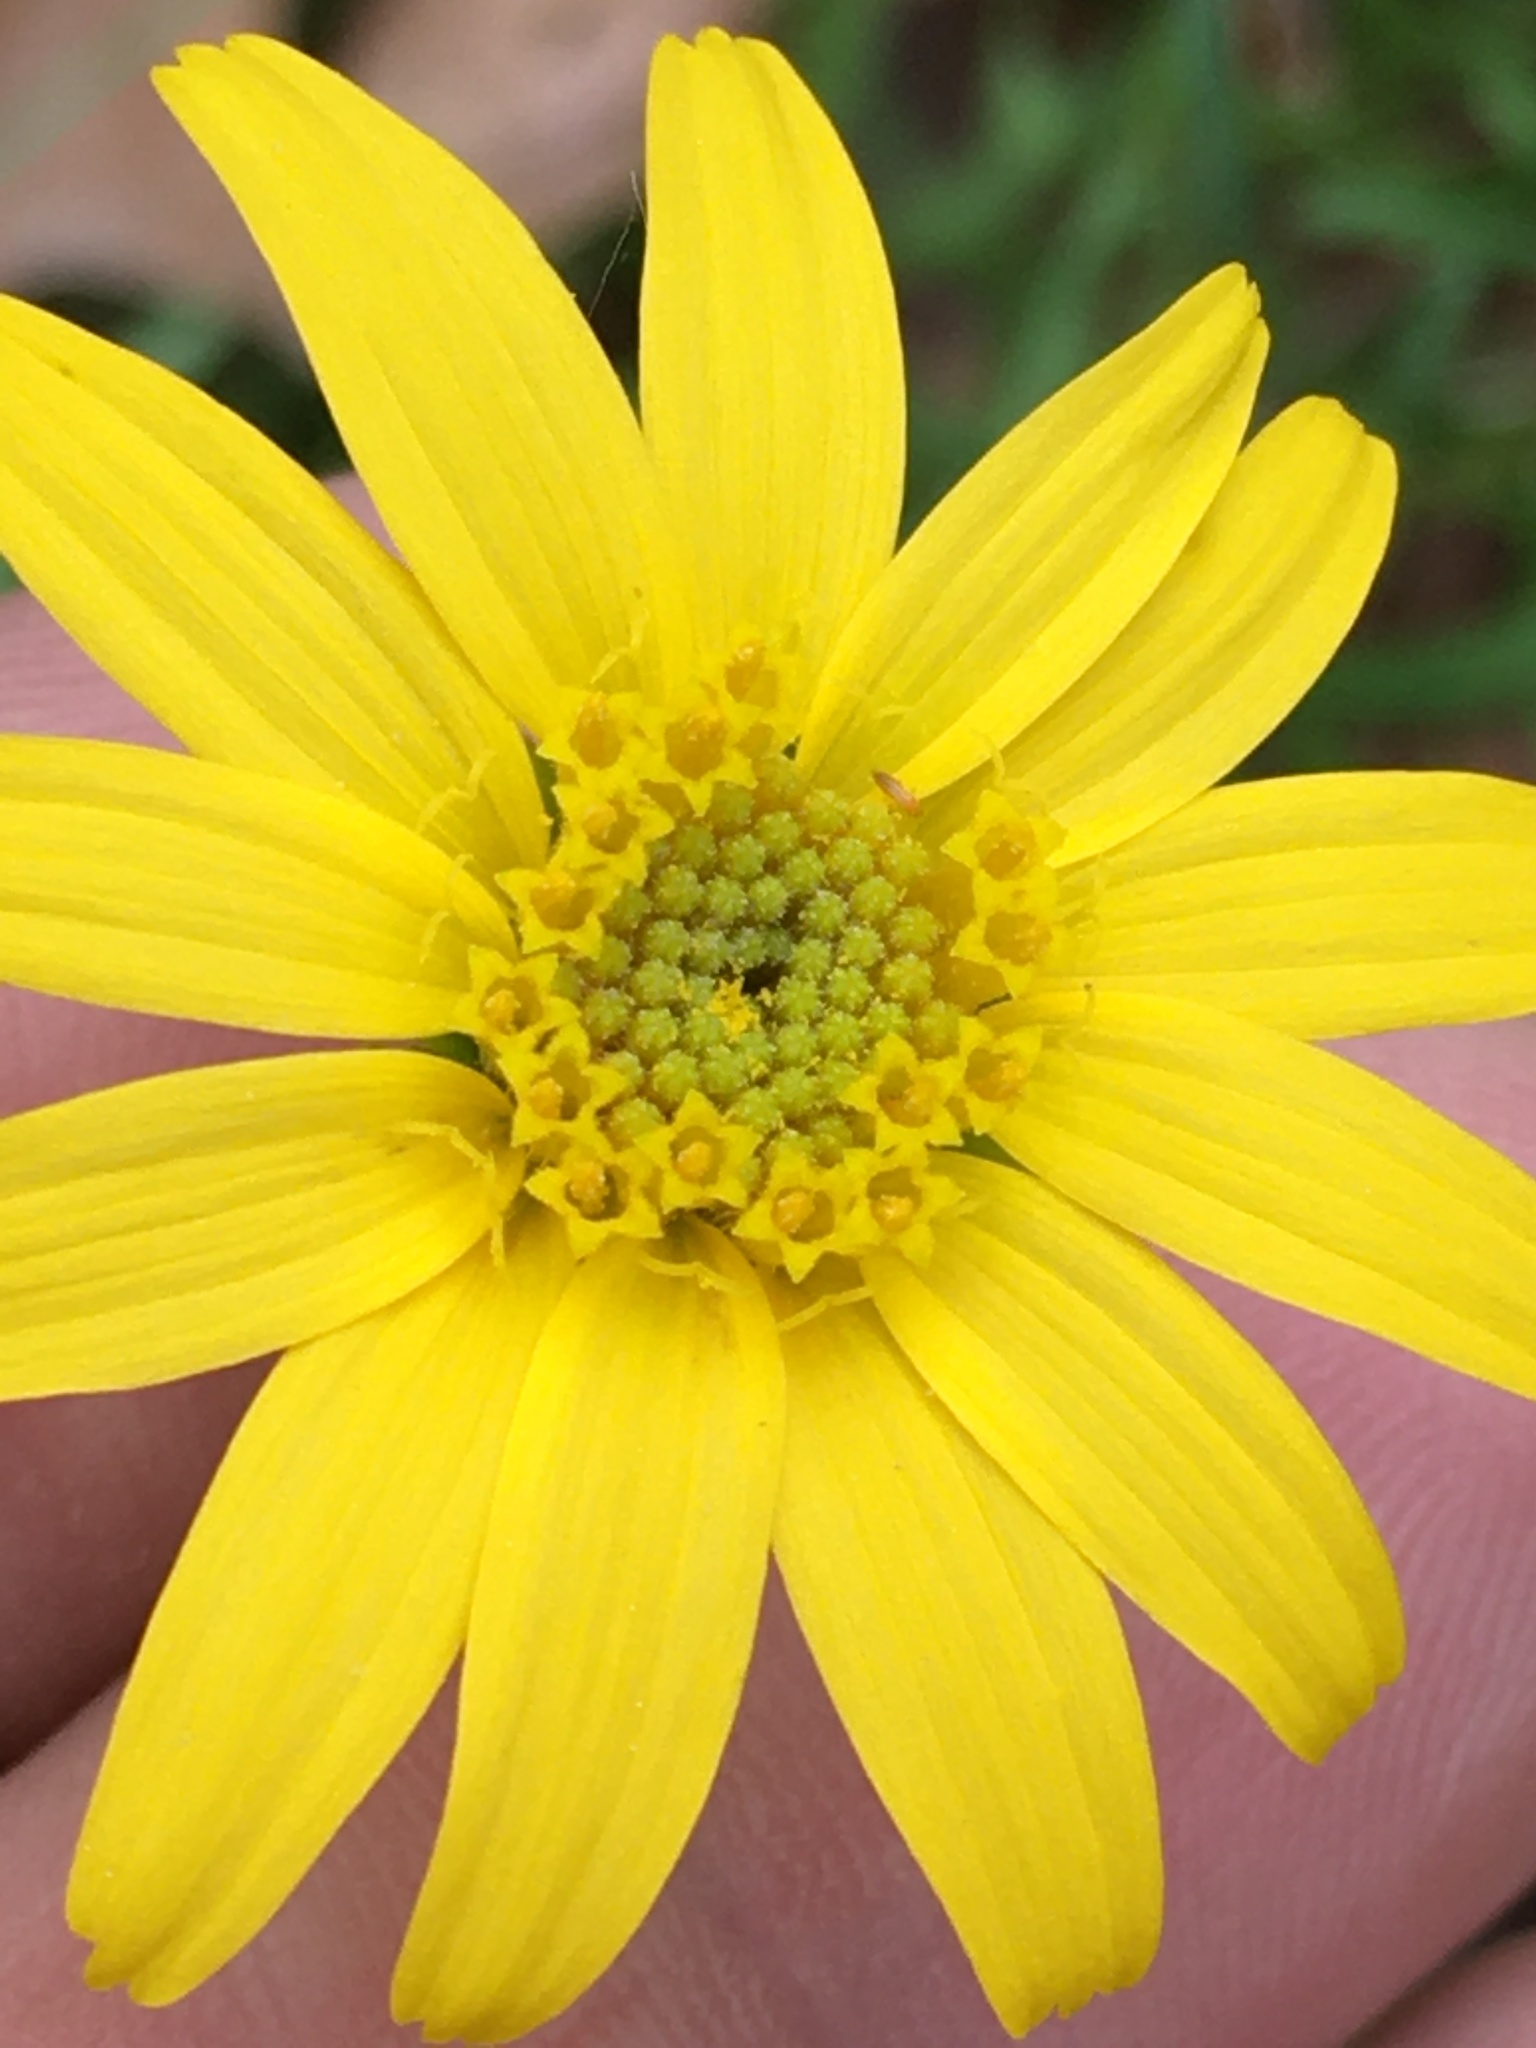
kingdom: Plantae
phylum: Tracheophyta
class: Magnoliopsida
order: Asterales
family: Asteraceae
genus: Arnica
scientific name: Arnica acaulis
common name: Common leopardbane
